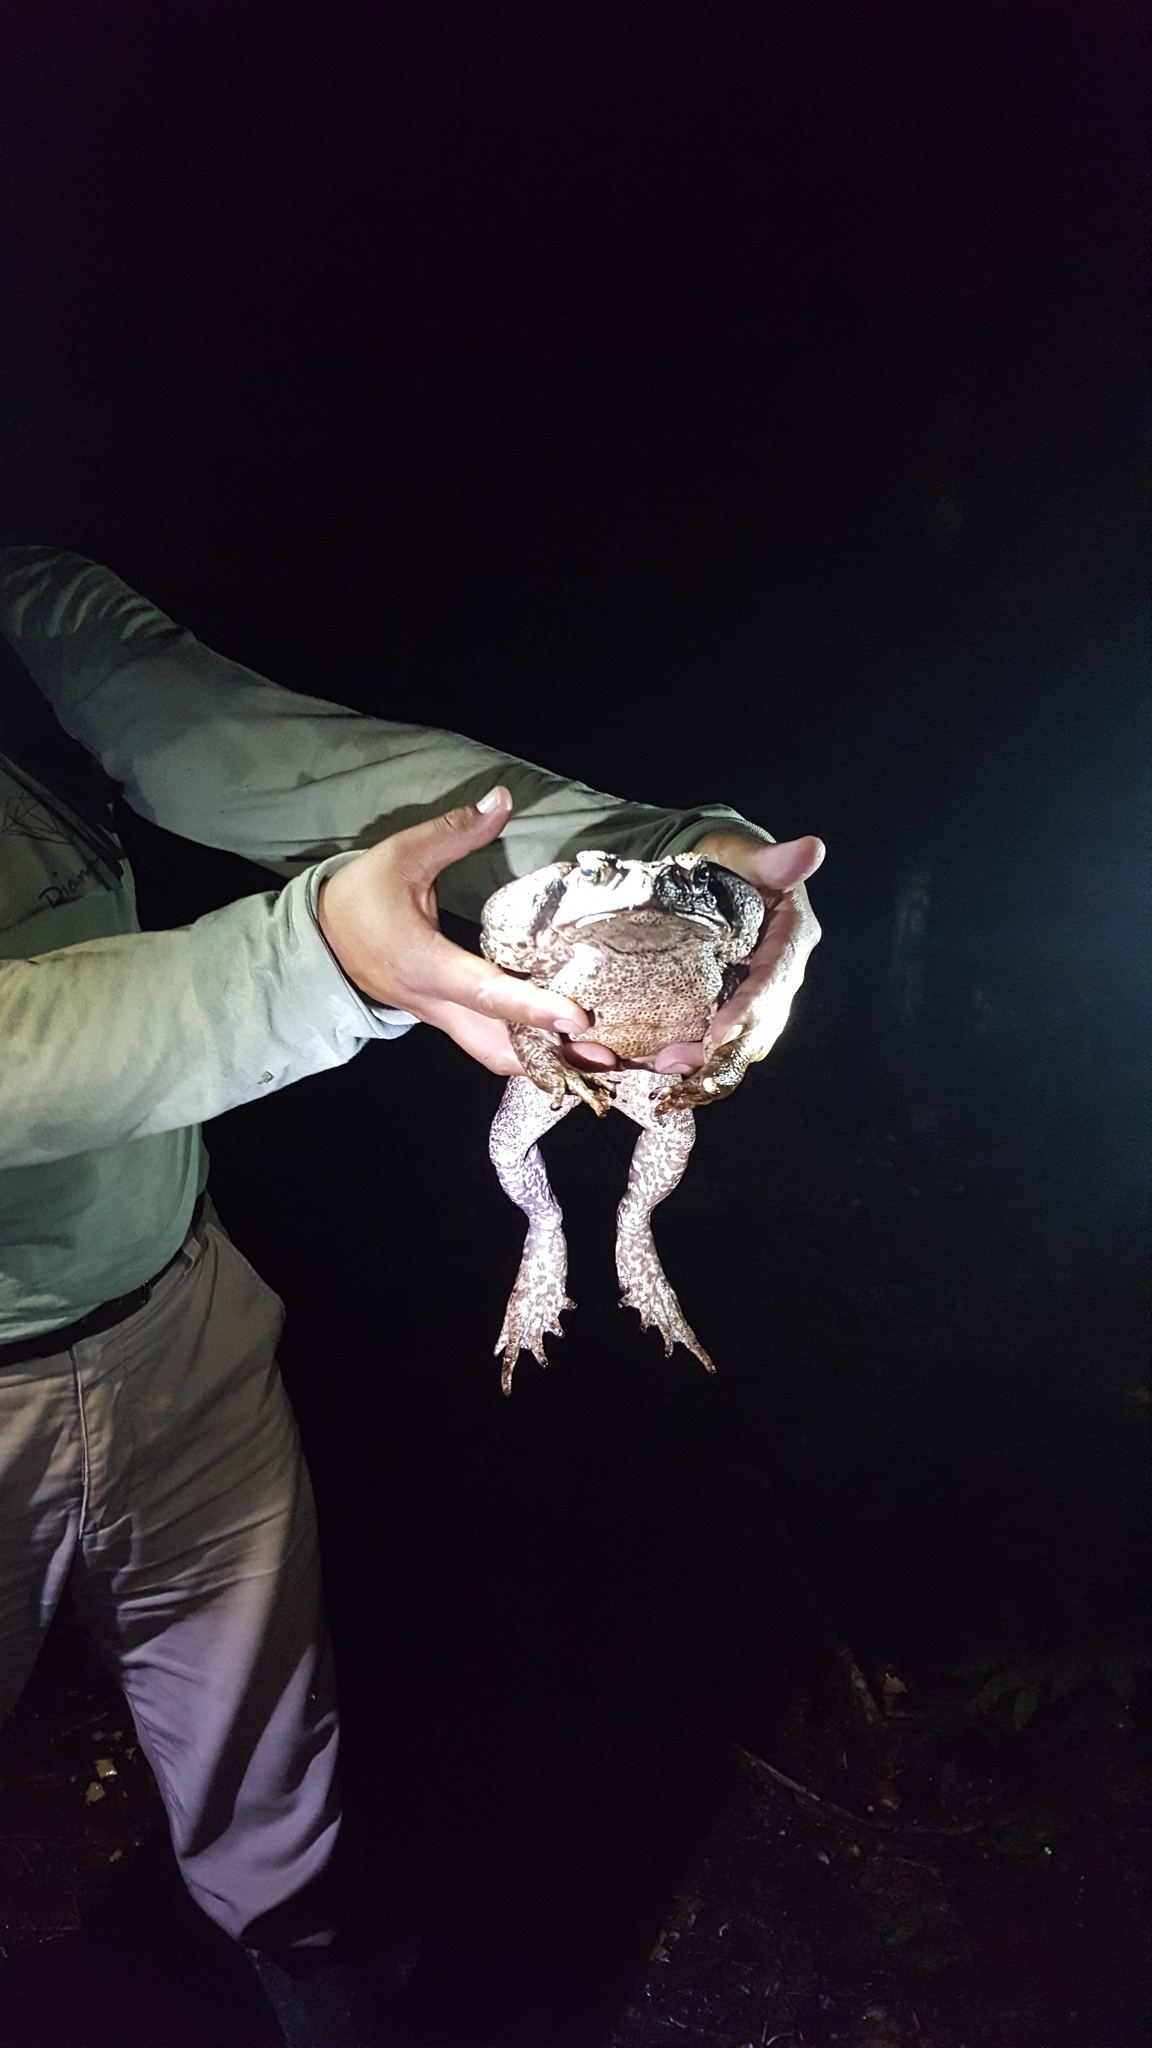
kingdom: Animalia
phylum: Chordata
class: Amphibia
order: Anura
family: Bufonidae
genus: Rhinella
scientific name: Rhinella marina
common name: Cane toad
